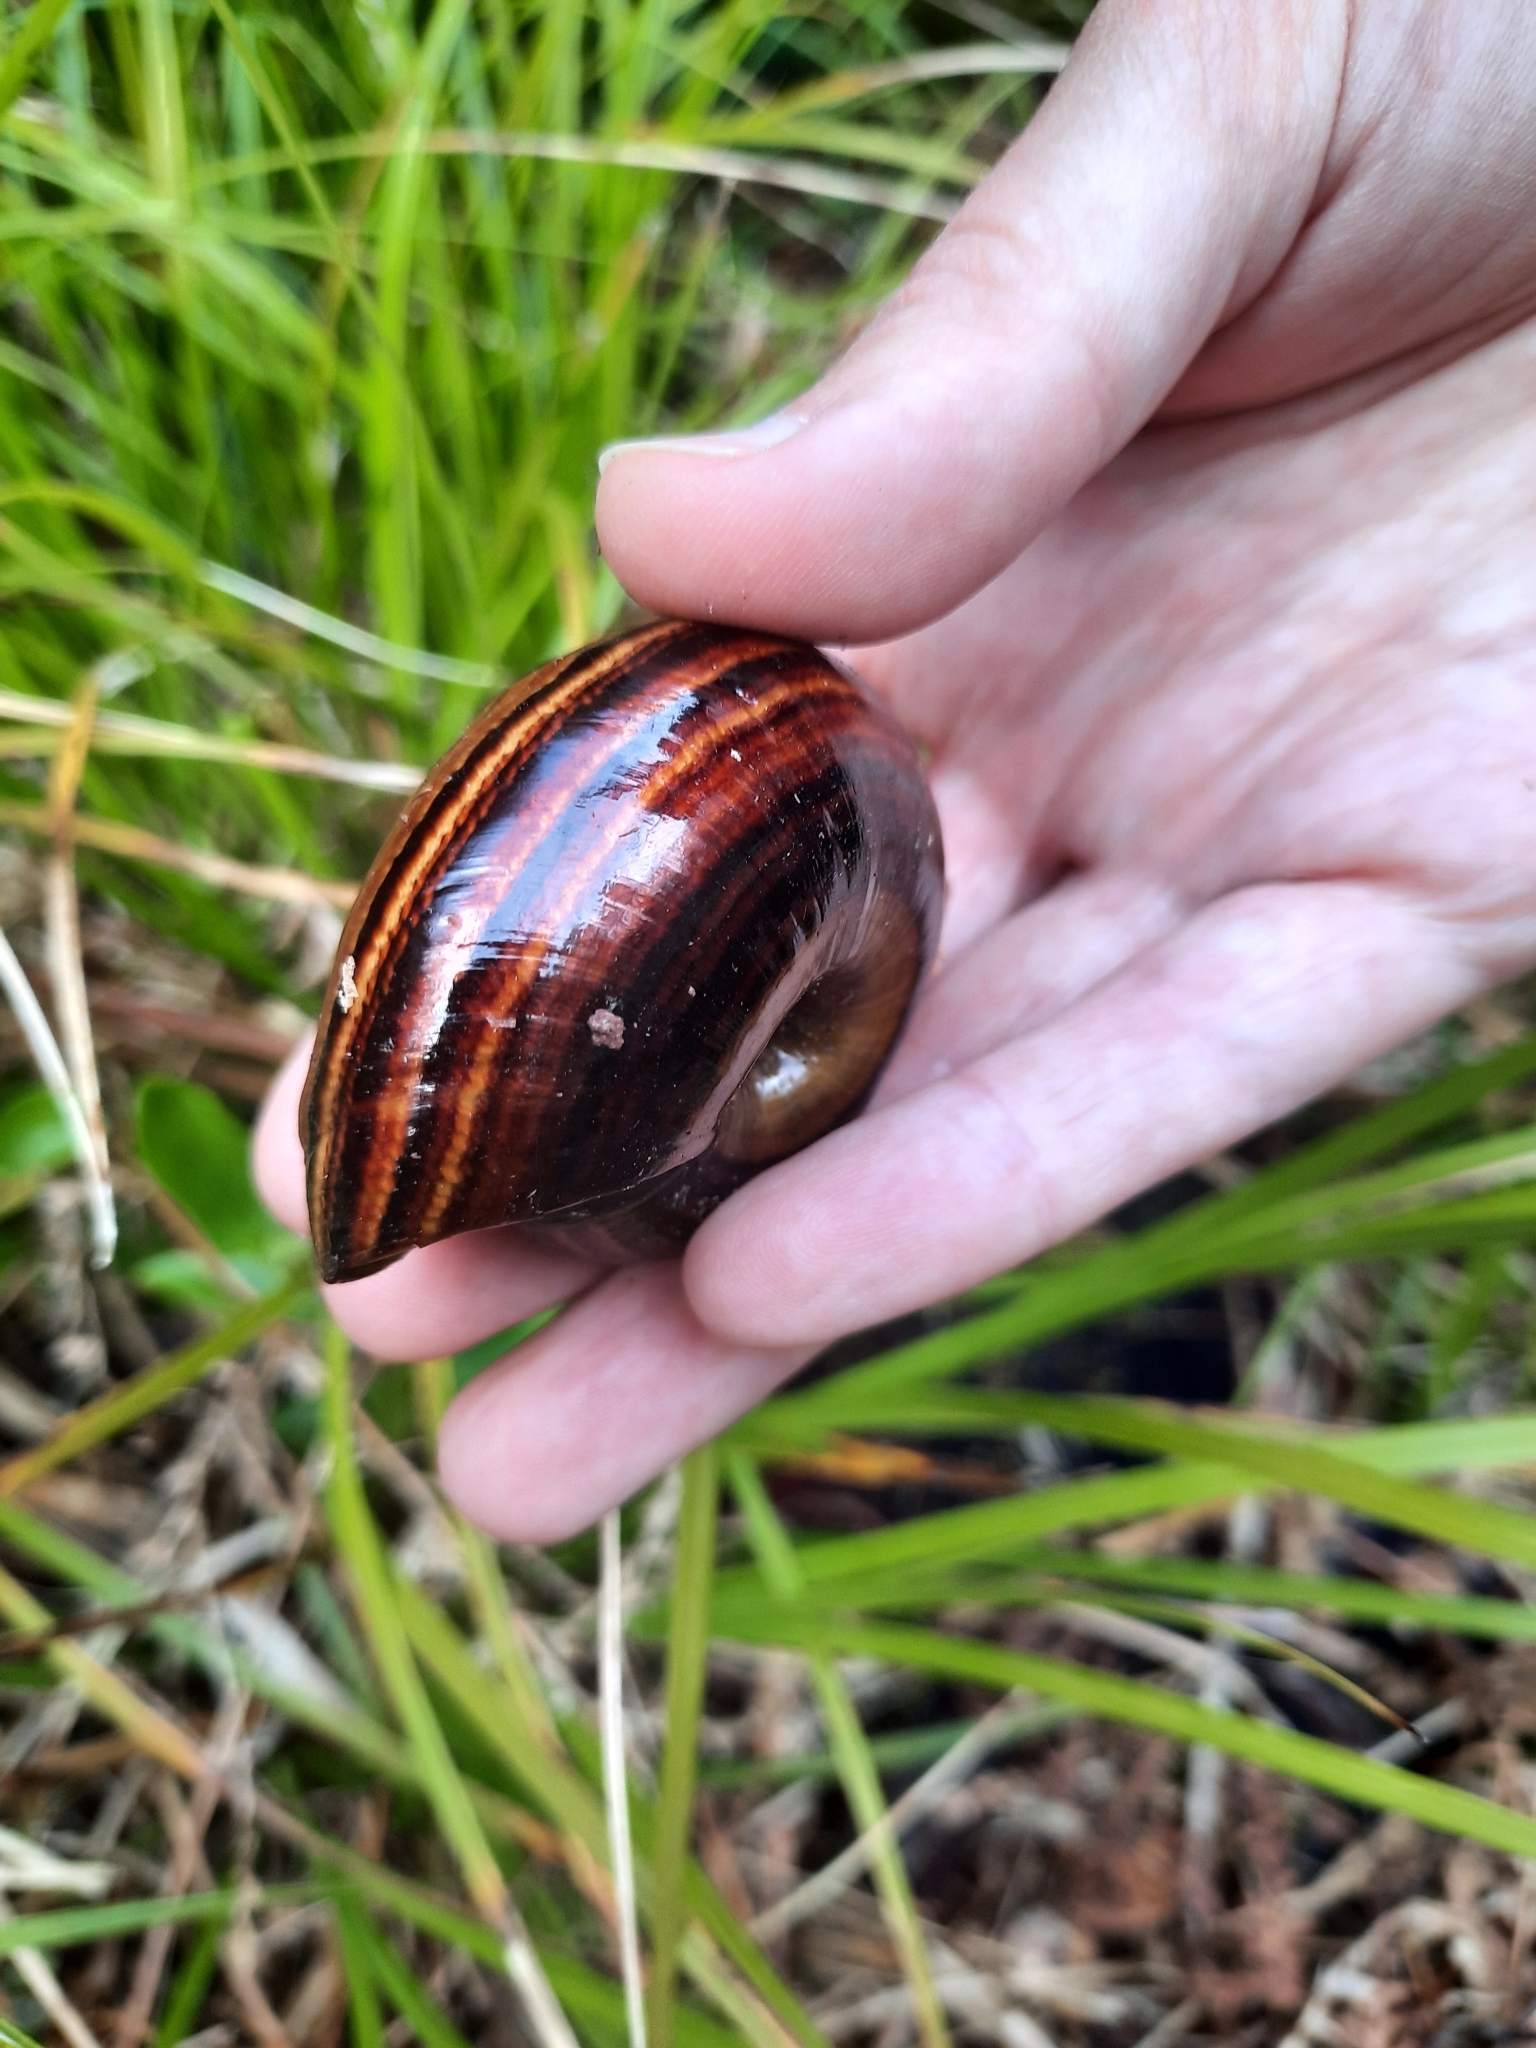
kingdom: Animalia
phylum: Mollusca
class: Gastropoda
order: Stylommatophora
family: Rhytididae
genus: Powelliphanta
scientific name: Powelliphanta hochstetteri
